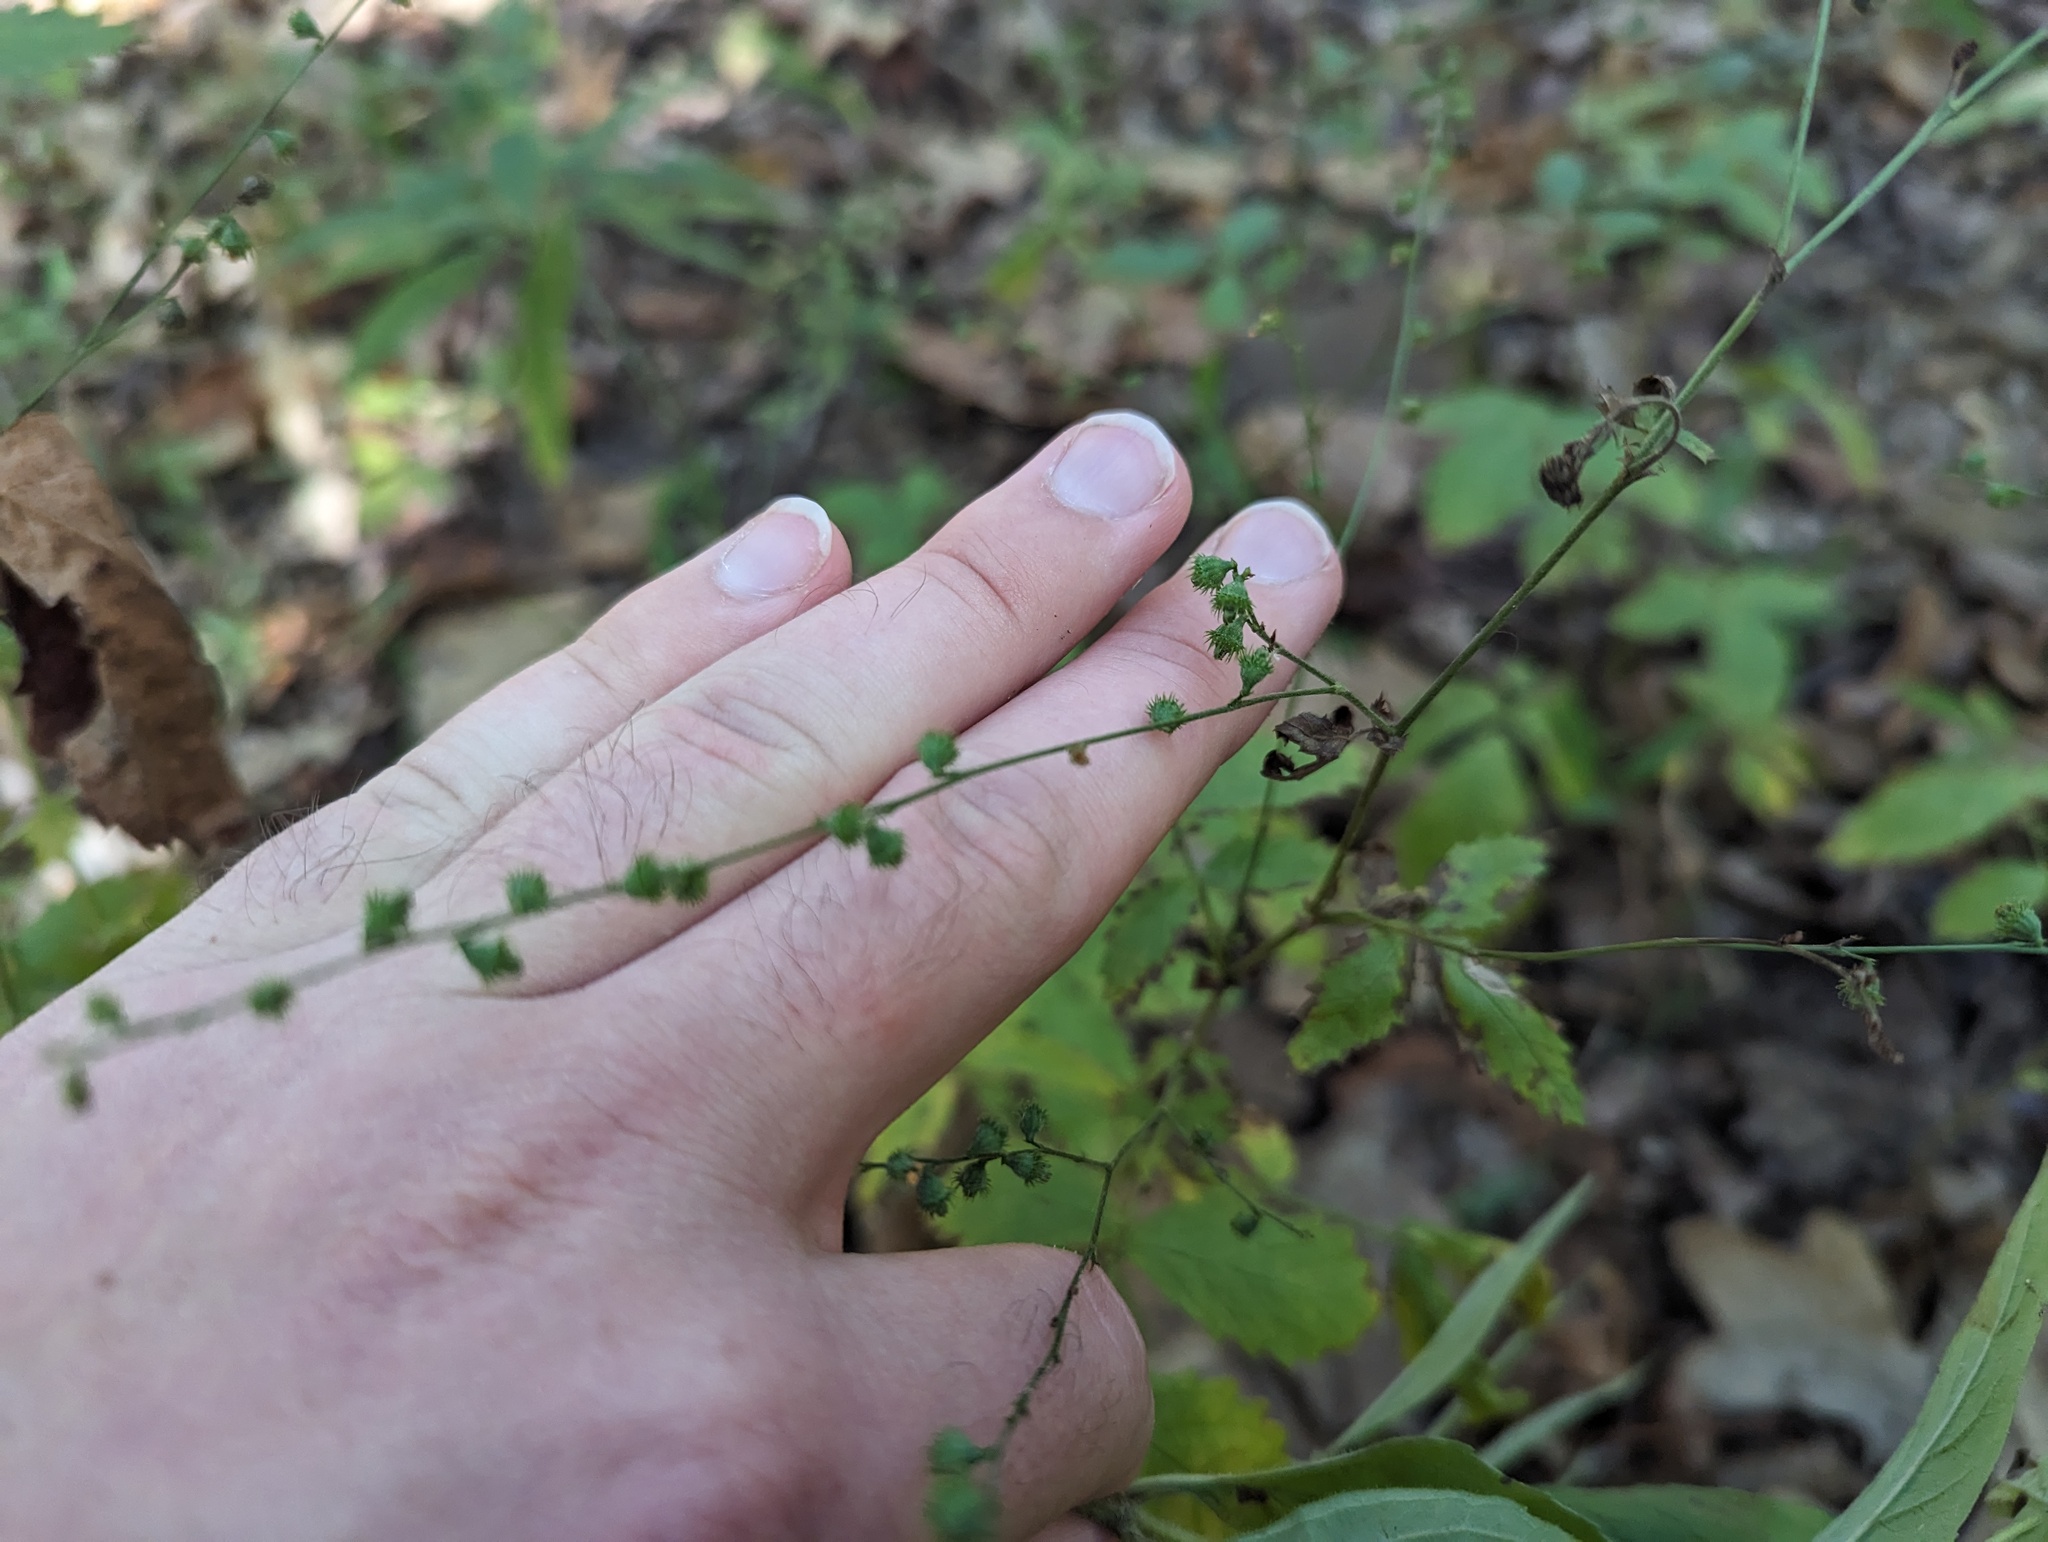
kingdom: Plantae
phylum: Tracheophyta
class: Magnoliopsida
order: Rosales
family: Rosaceae
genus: Agrimonia
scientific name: Agrimonia rostellata
